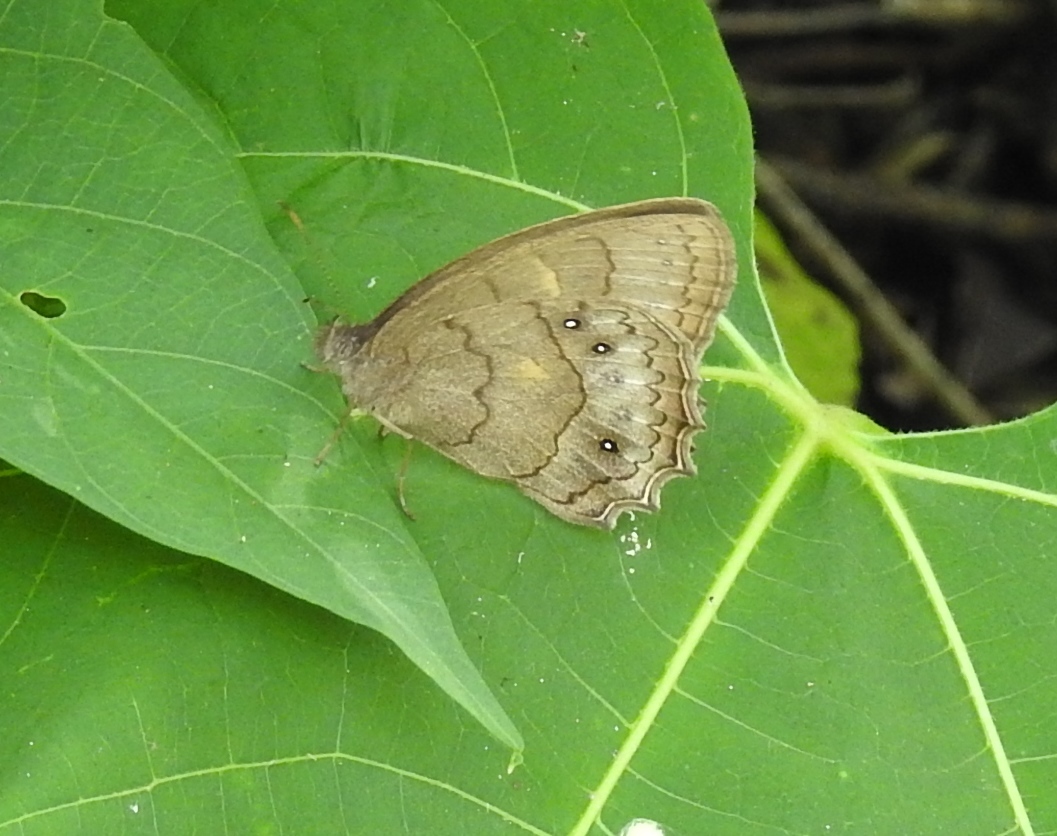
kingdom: Animalia
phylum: Arthropoda
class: Insecta
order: Lepidoptera
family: Nymphalidae
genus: Taygetina
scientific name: Taygetina kerea
